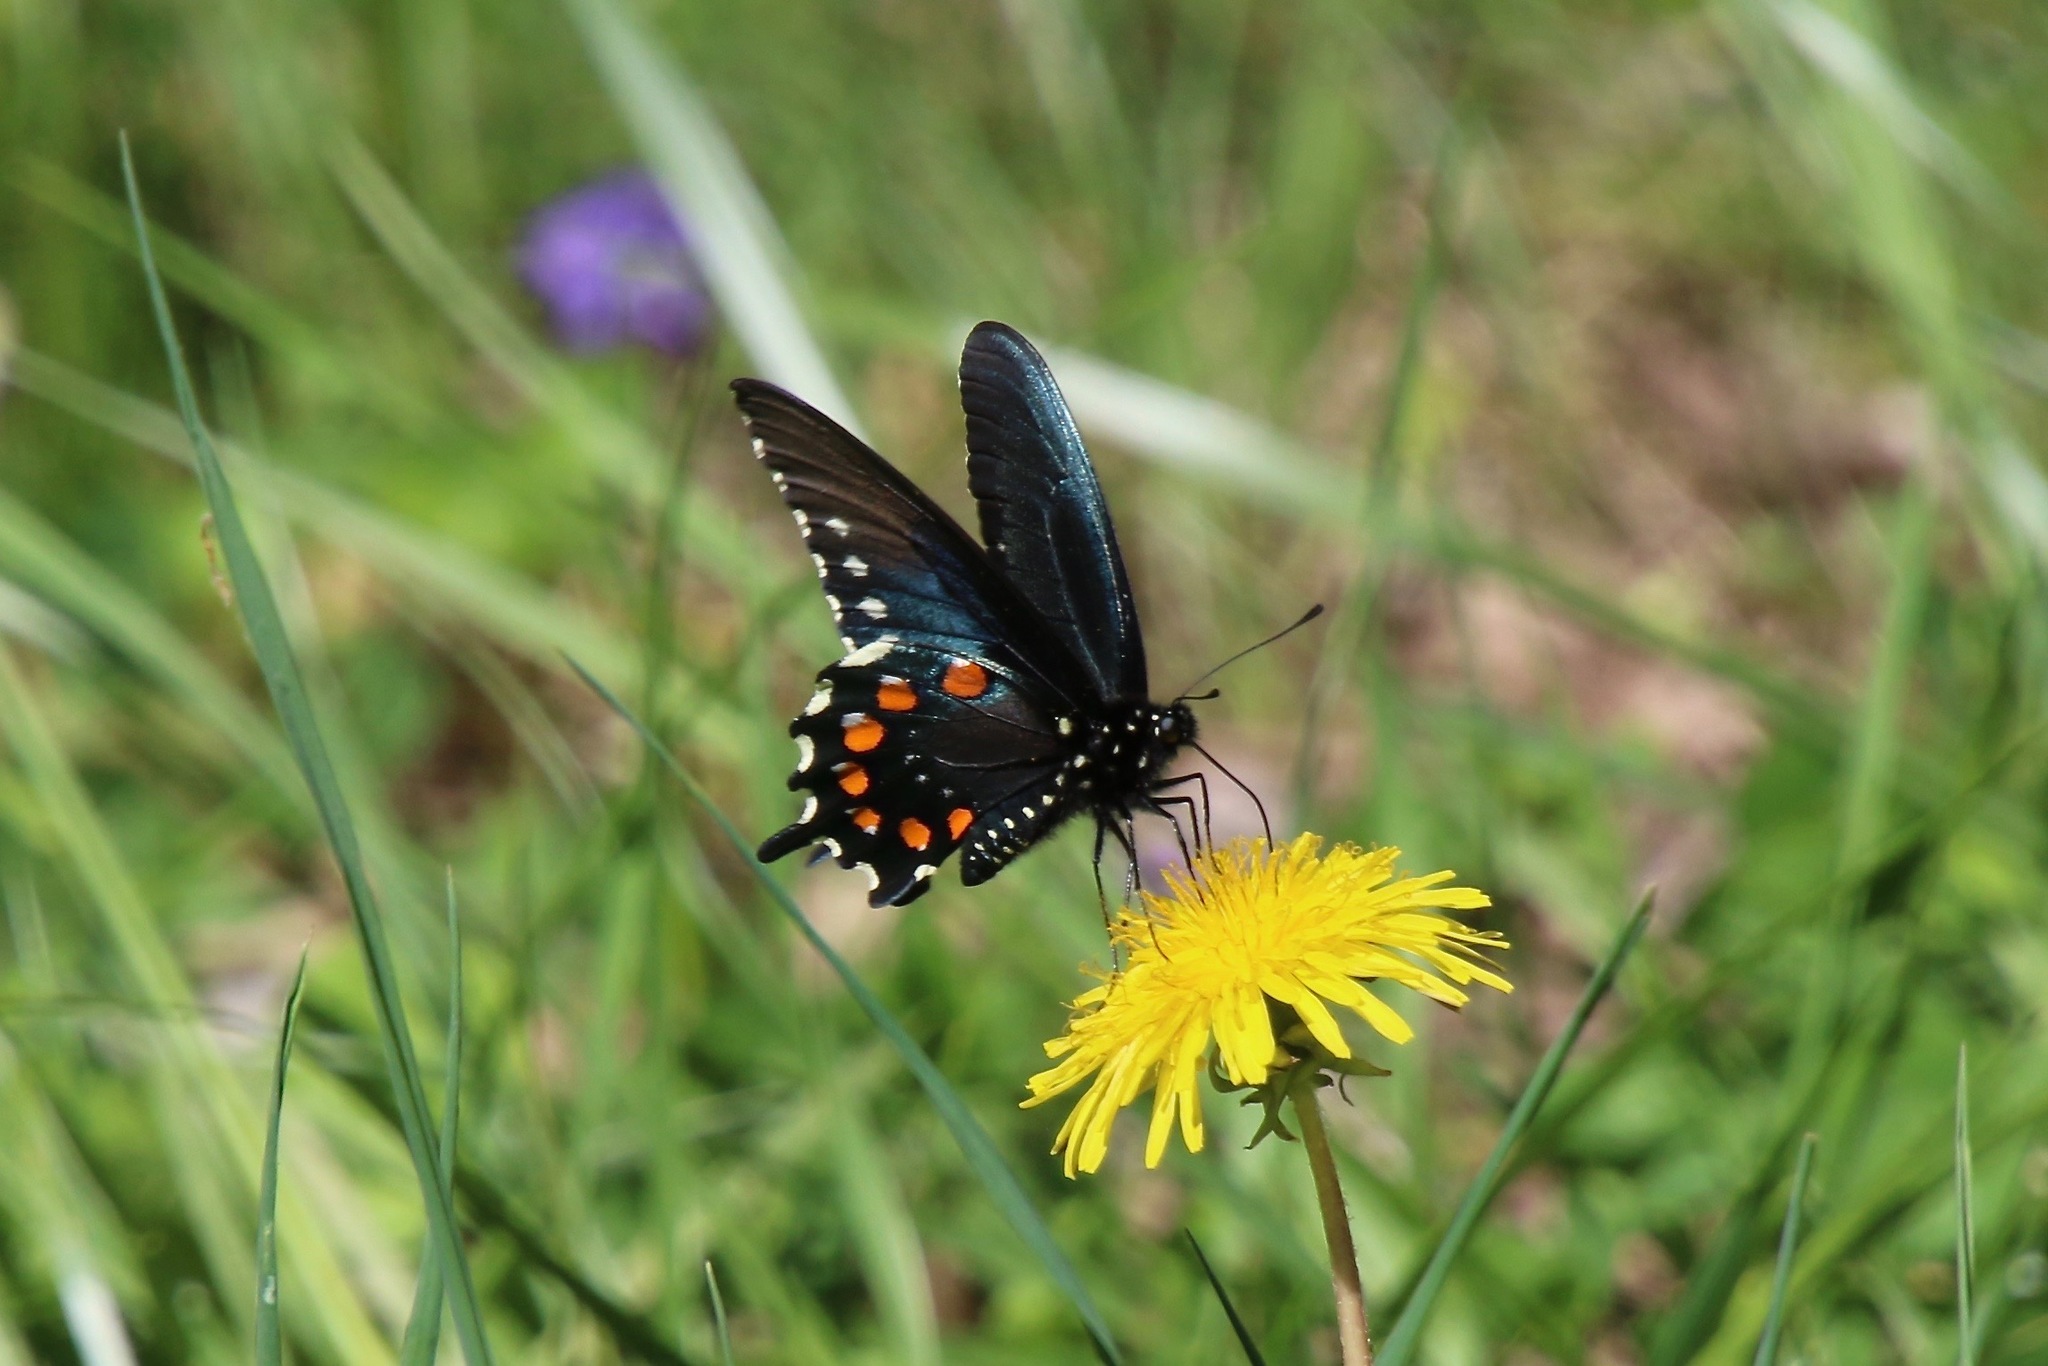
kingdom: Animalia
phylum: Arthropoda
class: Insecta
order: Lepidoptera
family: Papilionidae
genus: Battus
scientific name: Battus philenor
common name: Pipevine swallowtail
